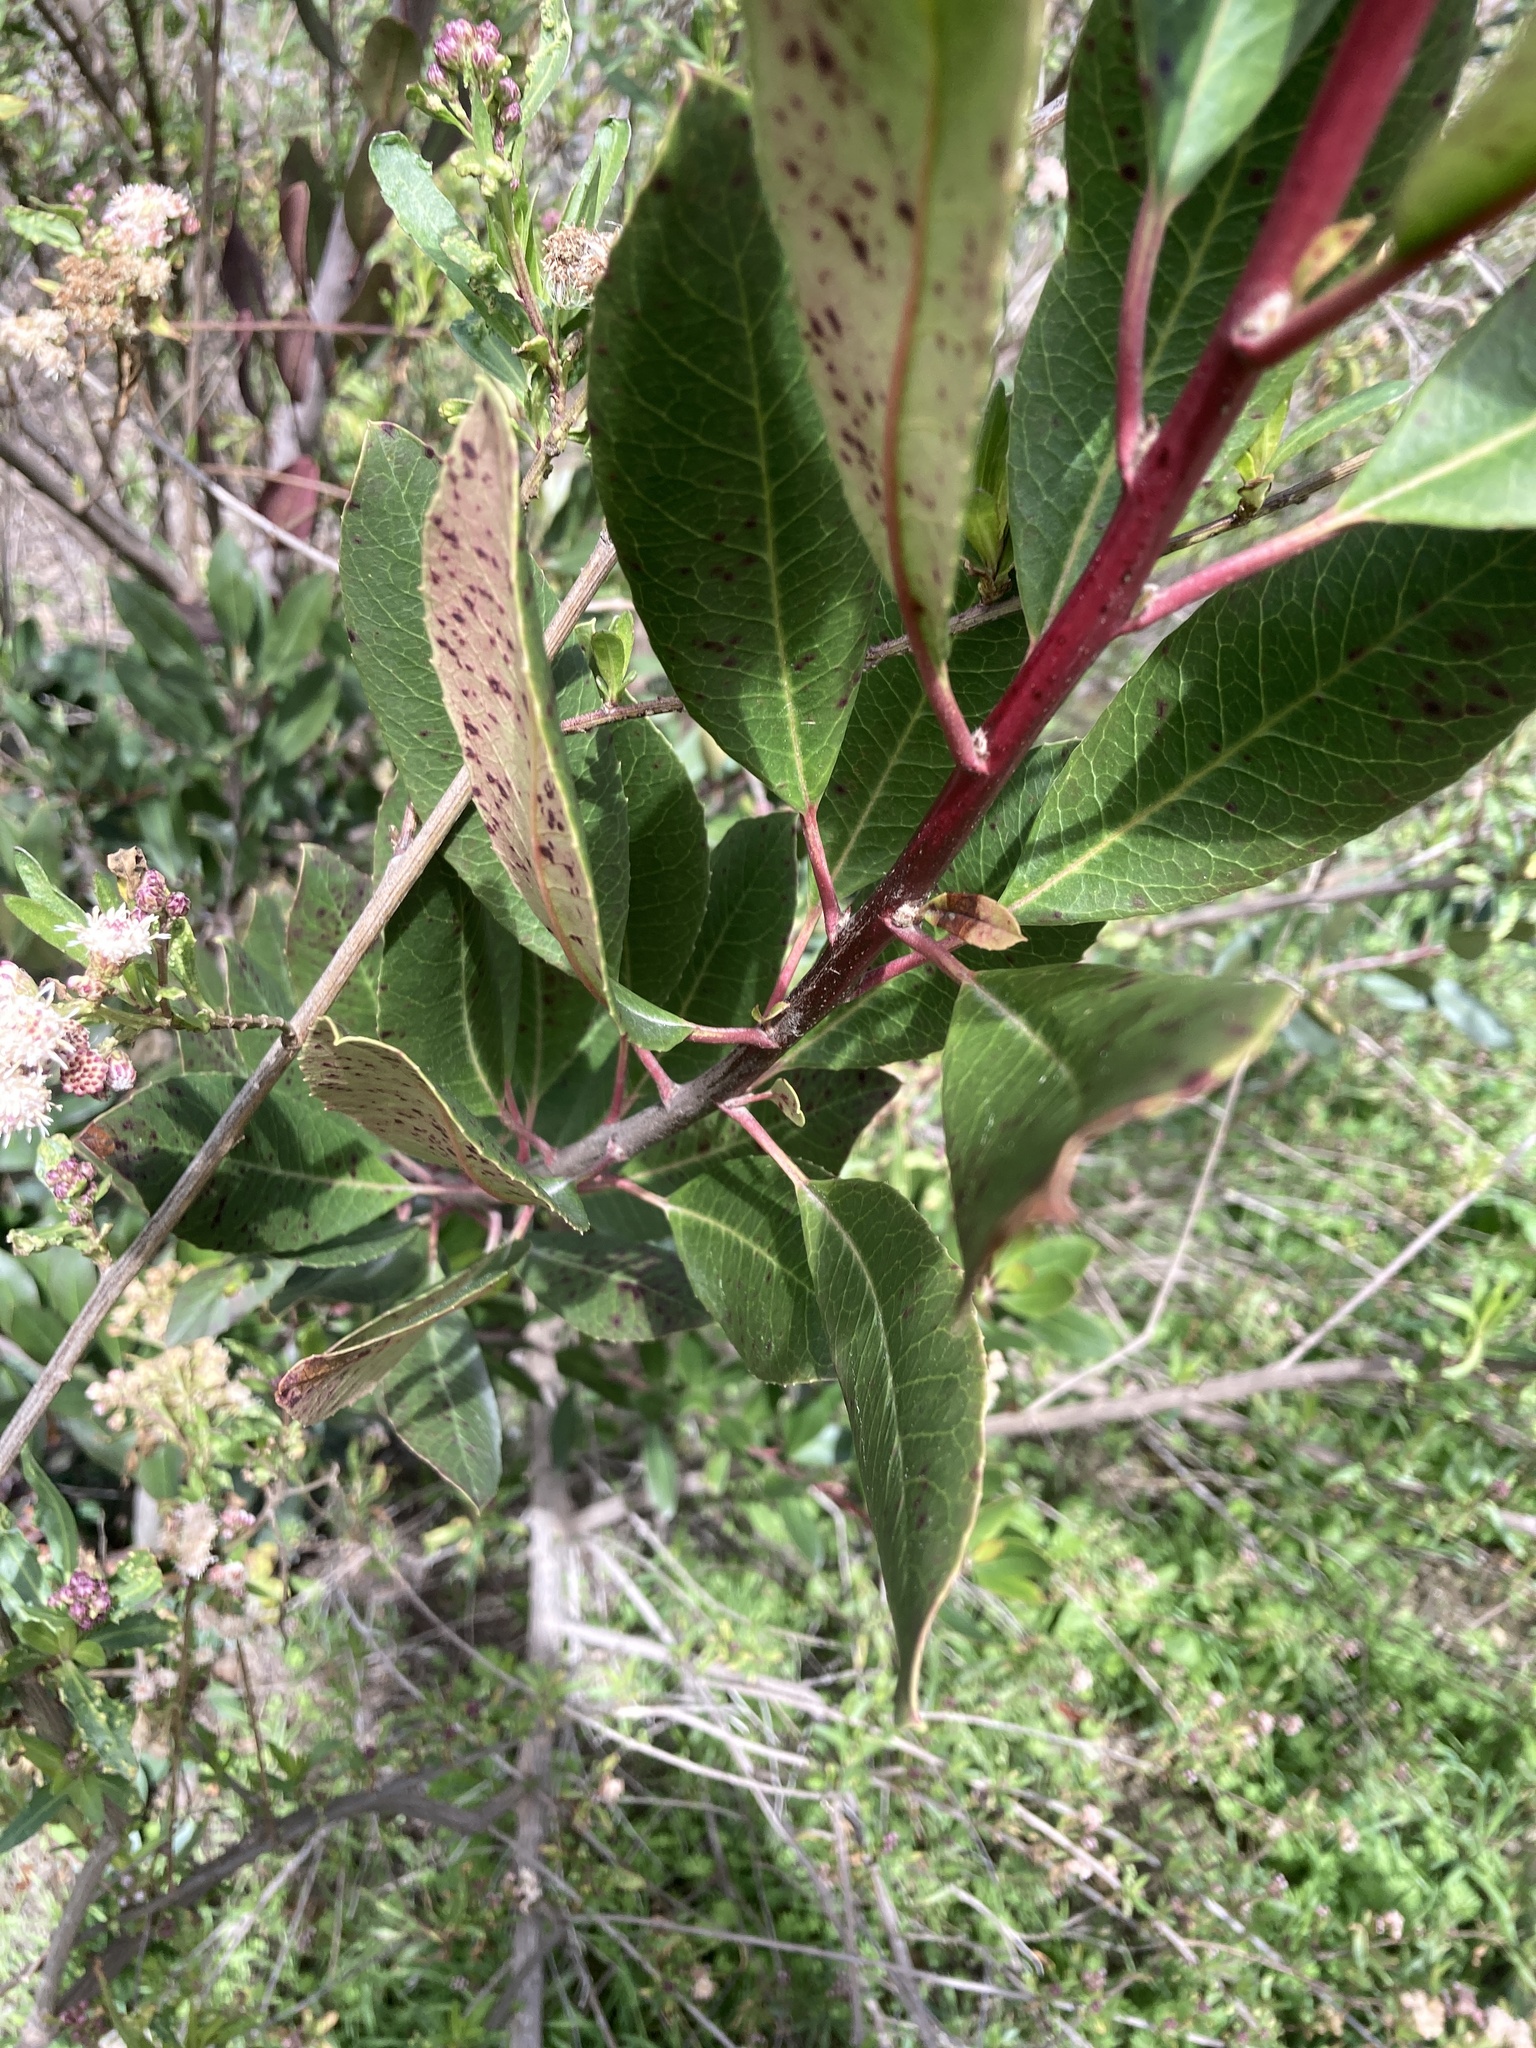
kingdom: Plantae
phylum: Tracheophyta
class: Magnoliopsida
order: Rosales
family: Rosaceae
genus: Heteromeles
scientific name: Heteromeles arbutifolia
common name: California-holly
